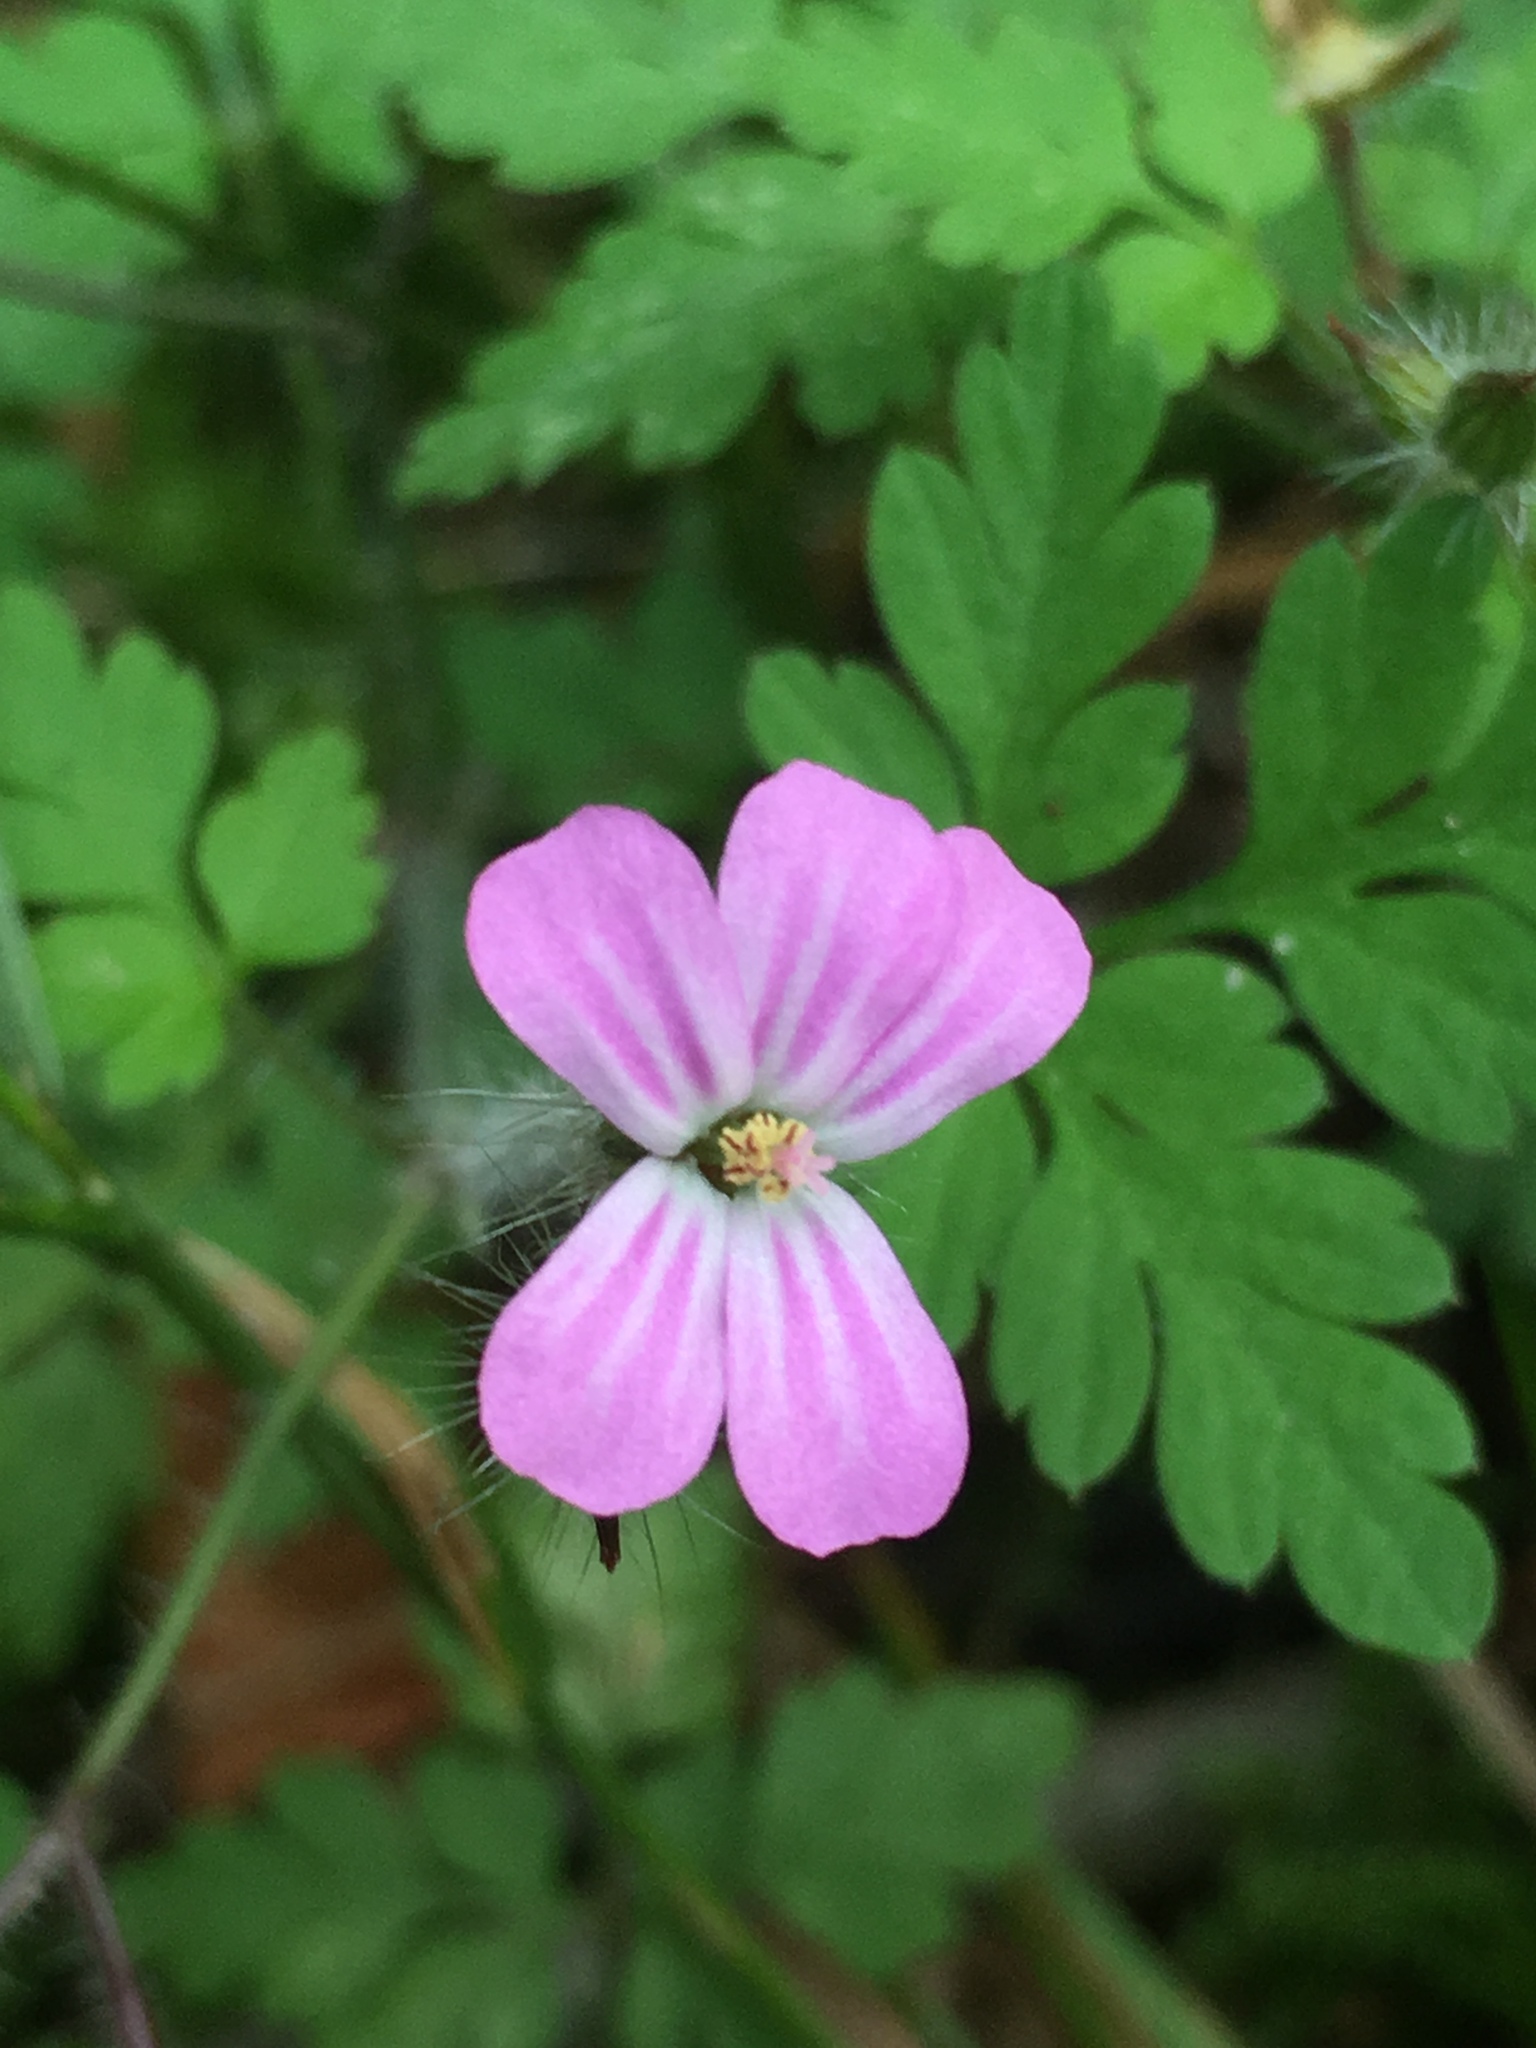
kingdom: Plantae
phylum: Tracheophyta
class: Magnoliopsida
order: Geraniales
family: Geraniaceae
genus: Geranium
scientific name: Geranium robertianum
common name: Herb-robert
